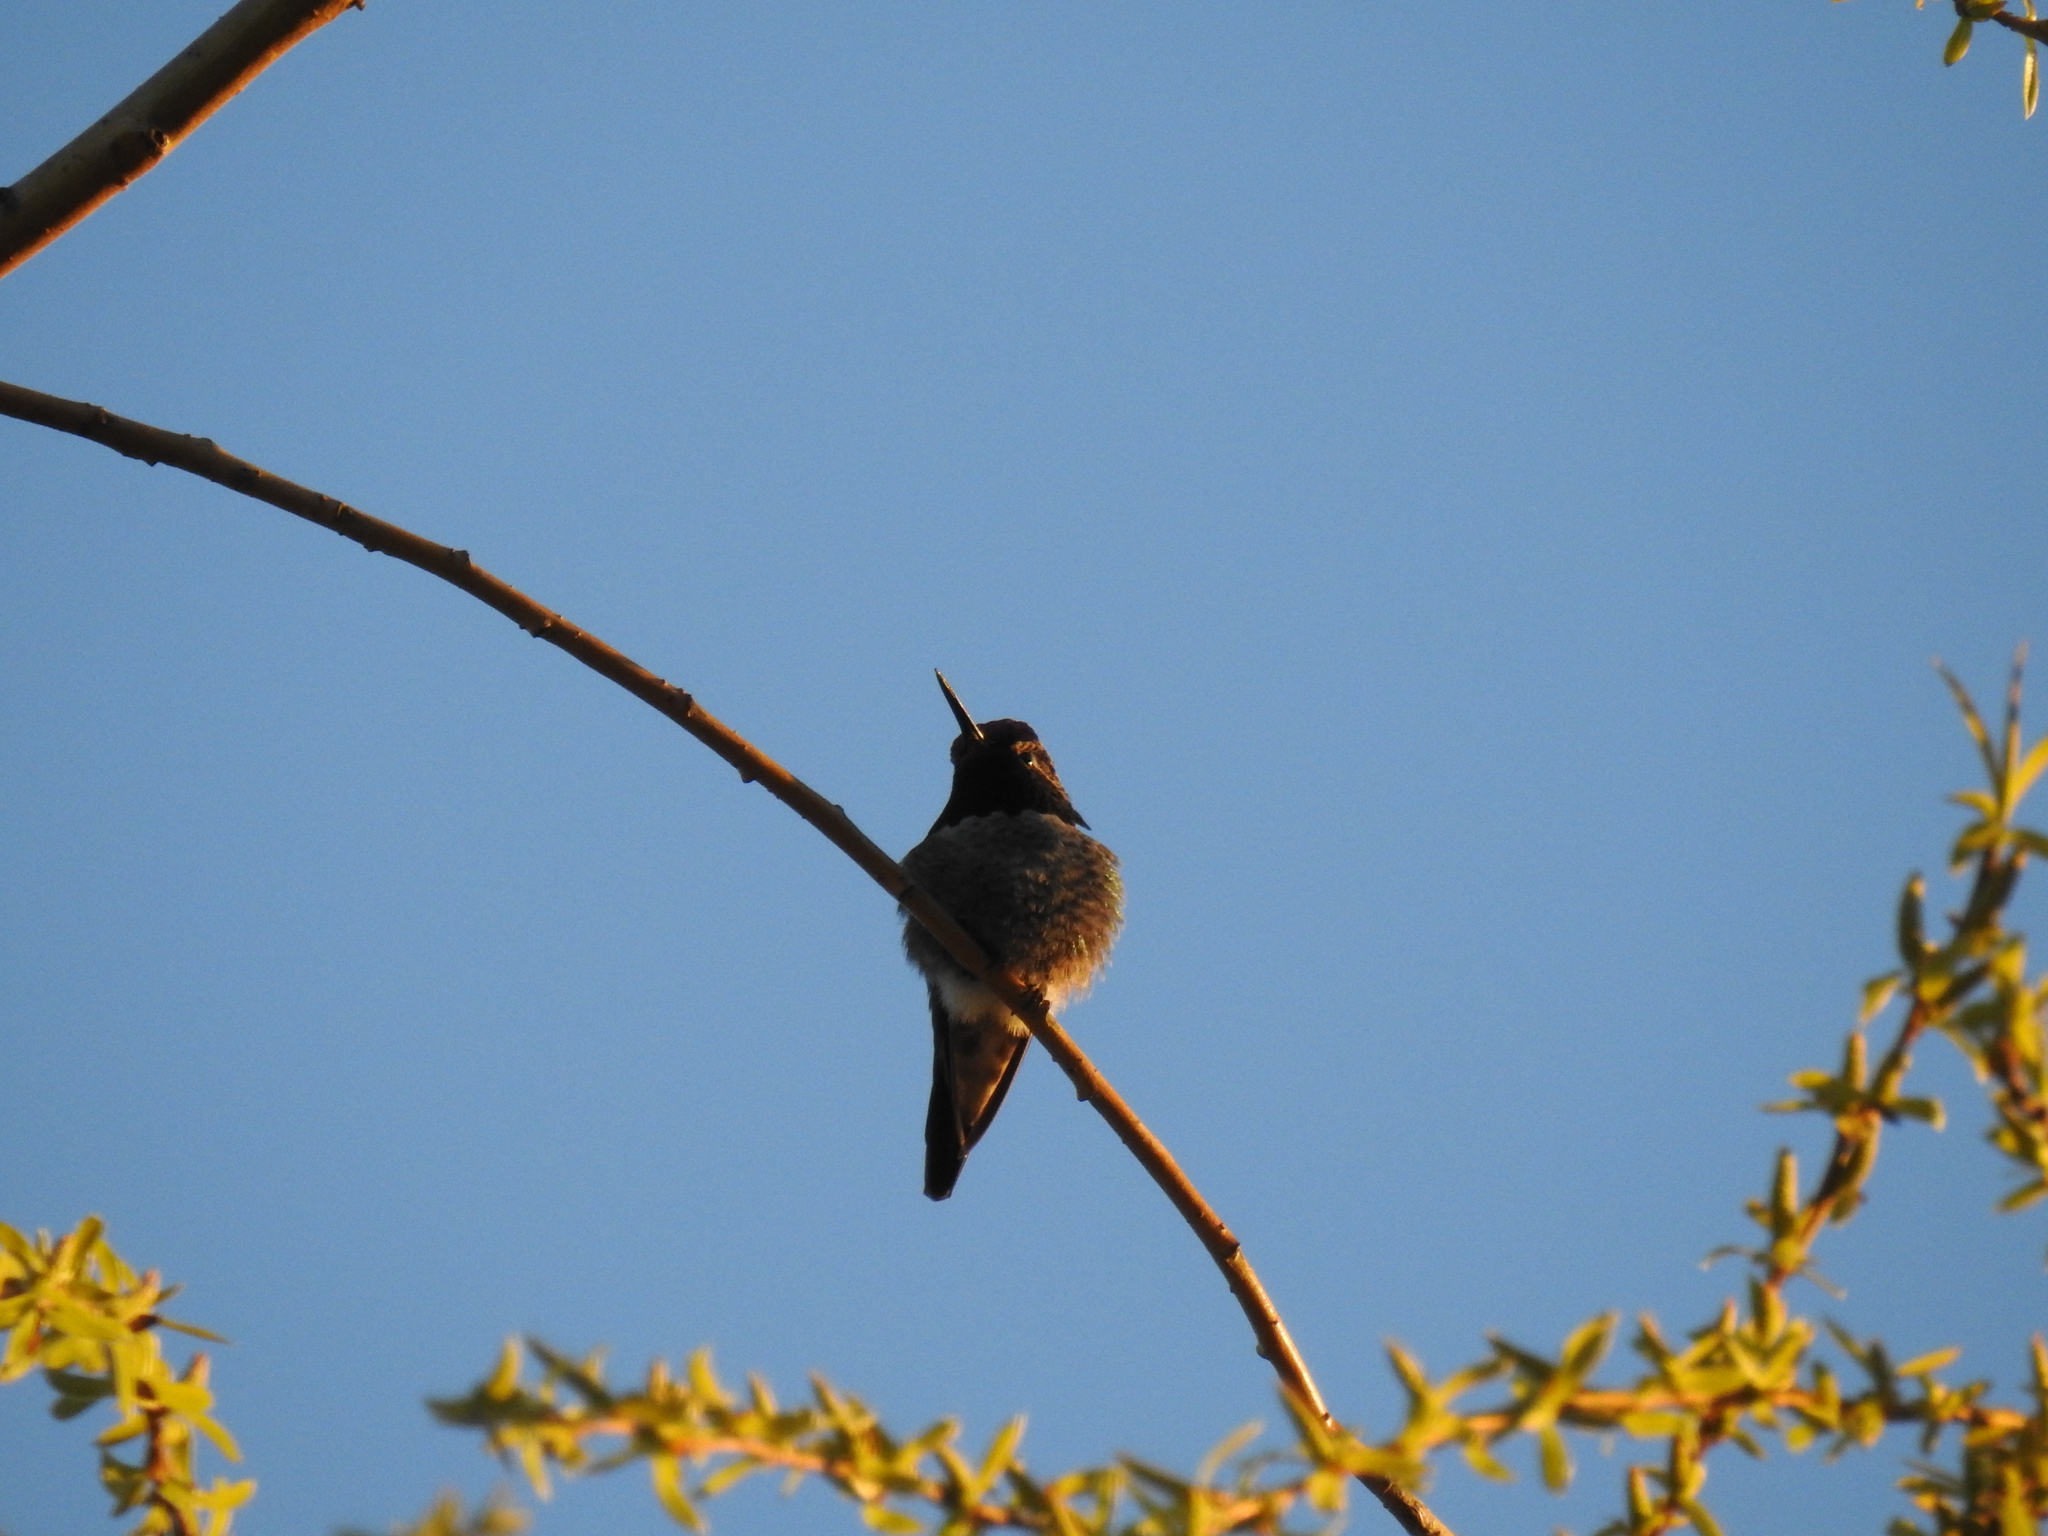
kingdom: Animalia
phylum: Chordata
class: Aves
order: Apodiformes
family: Trochilidae
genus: Calypte
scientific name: Calypte anna
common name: Anna's hummingbird
